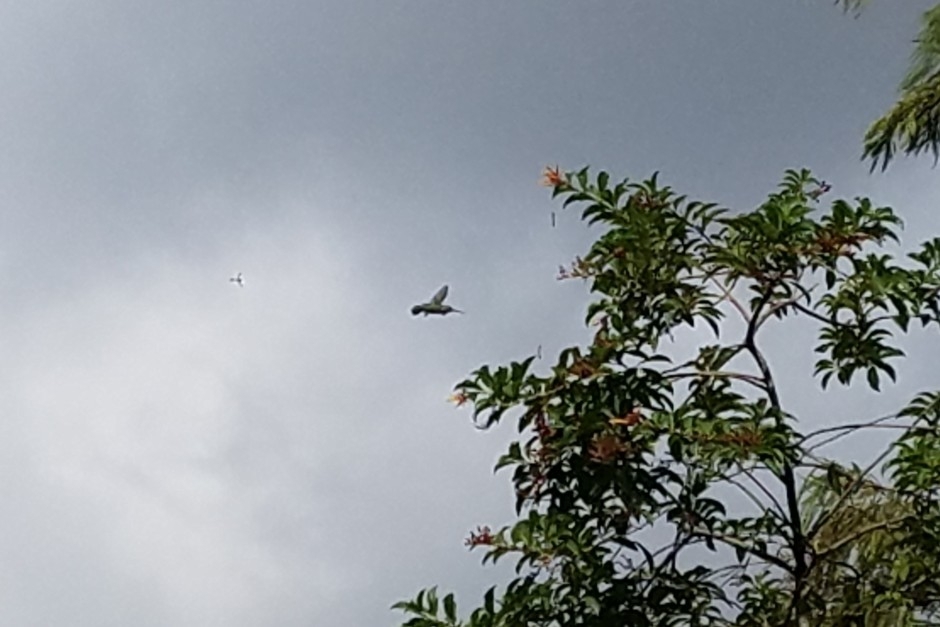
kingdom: Animalia
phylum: Chordata
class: Aves
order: Apodiformes
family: Trochilidae
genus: Archilochus
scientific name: Archilochus colubris
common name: Ruby-throated hummingbird
